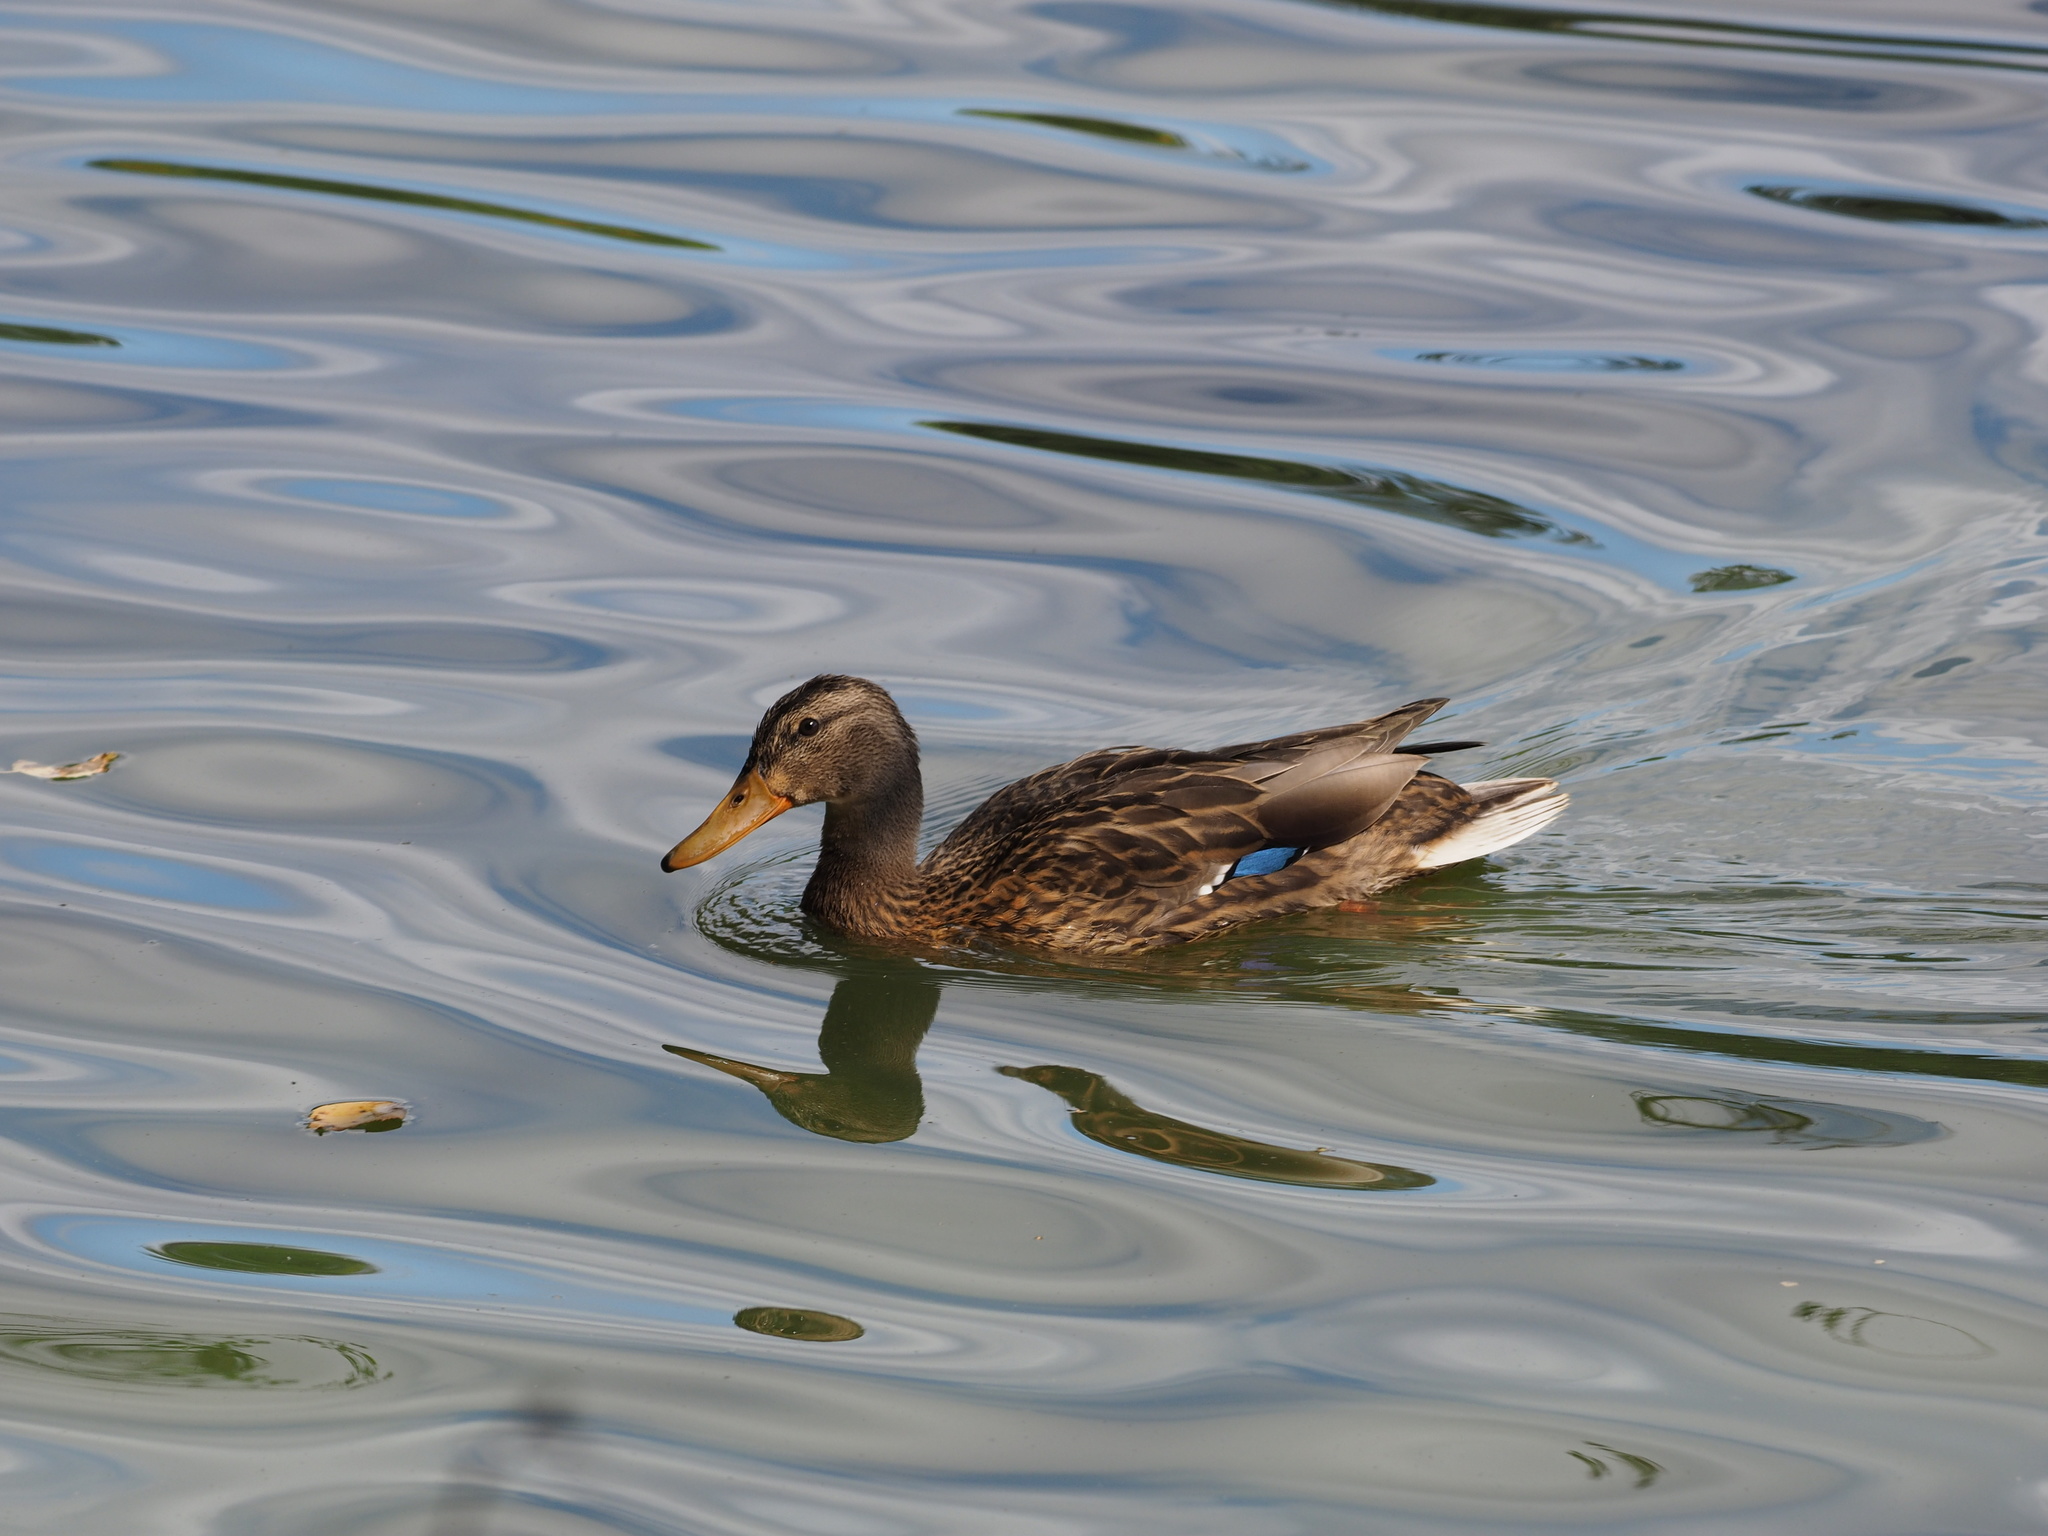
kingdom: Animalia
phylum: Chordata
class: Aves
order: Anseriformes
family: Anatidae
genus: Anas
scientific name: Anas platyrhynchos
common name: Mallard
